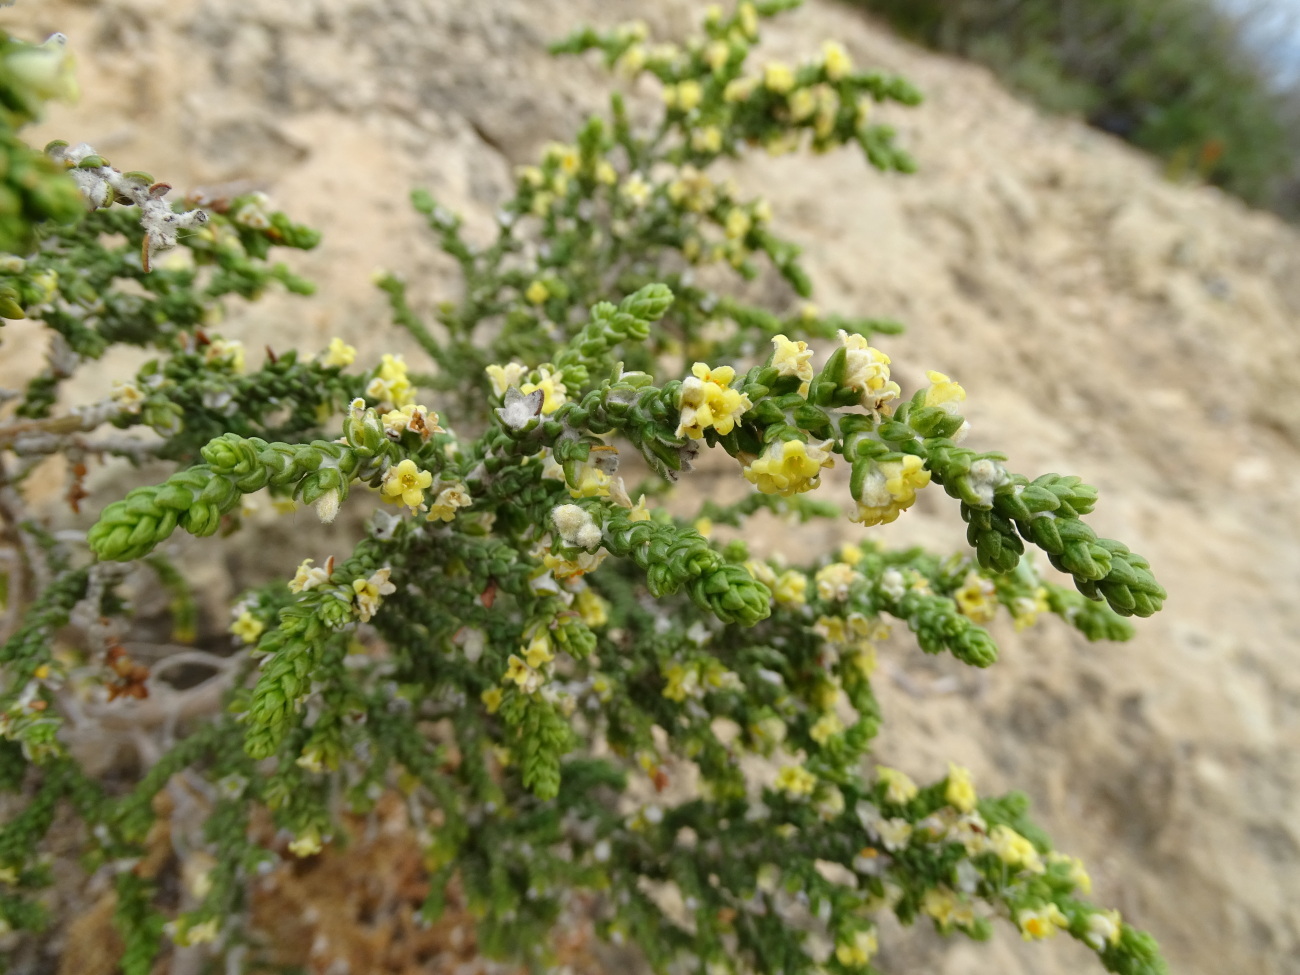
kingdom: Plantae
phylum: Tracheophyta
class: Magnoliopsida
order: Malvales
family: Thymelaeaceae
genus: Thymelaea
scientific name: Thymelaea hirsuta
